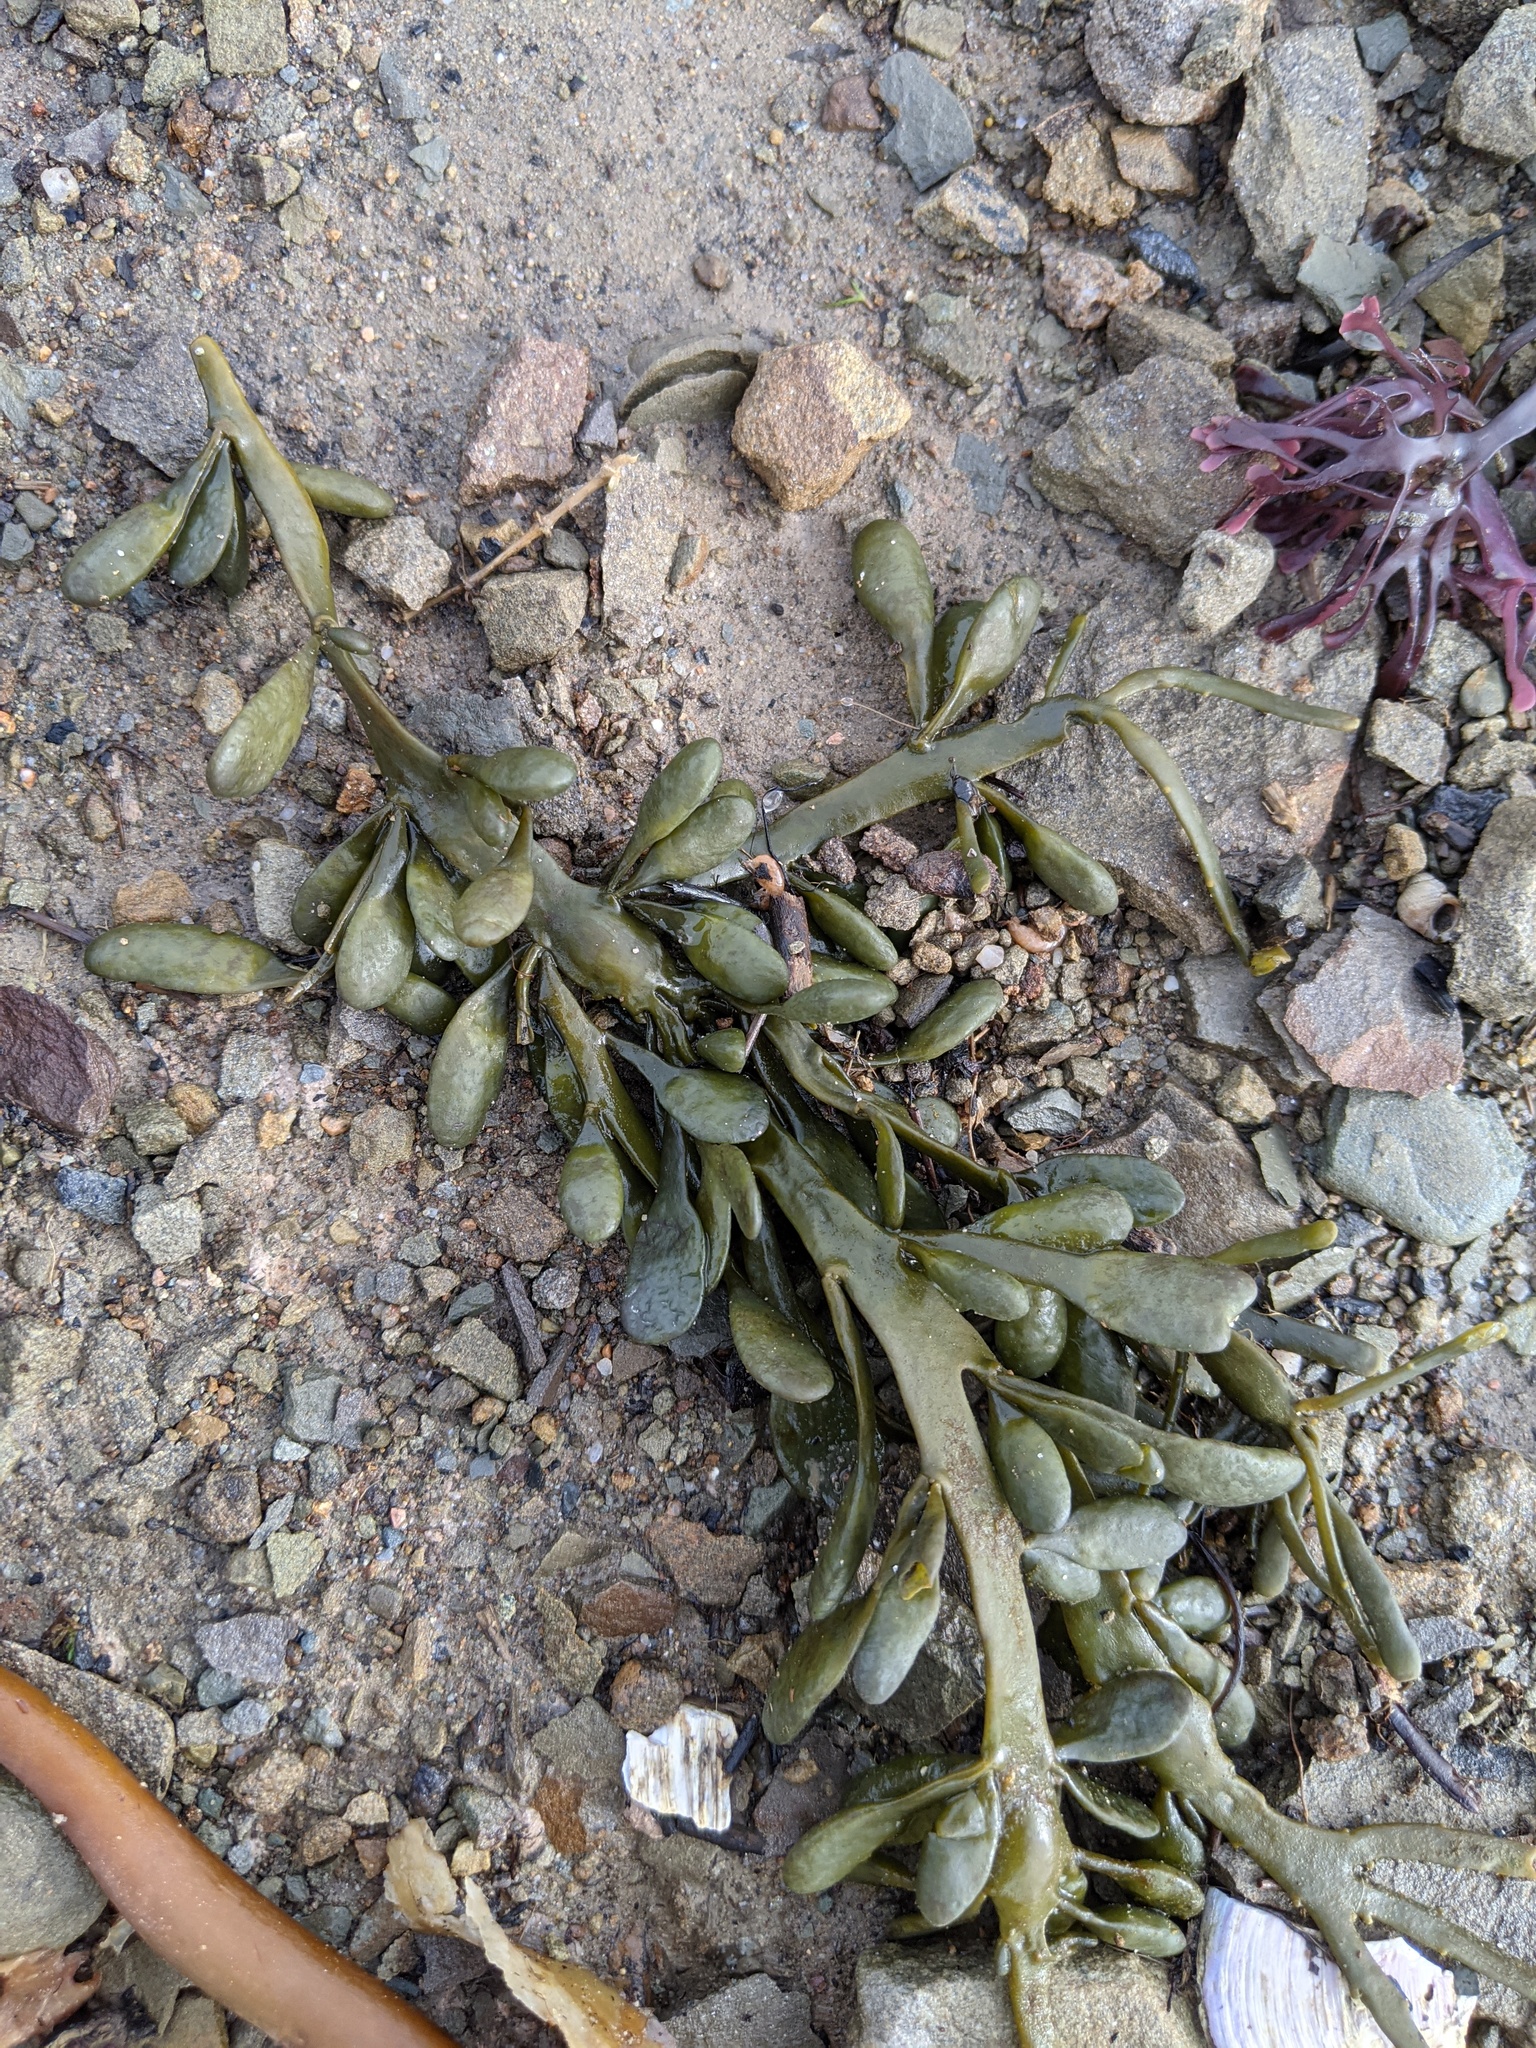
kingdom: Chromista
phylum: Ochrophyta
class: Phaeophyceae
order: Fucales
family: Fucaceae
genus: Ascophyllum
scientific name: Ascophyllum nodosum
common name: Knotted wrack
